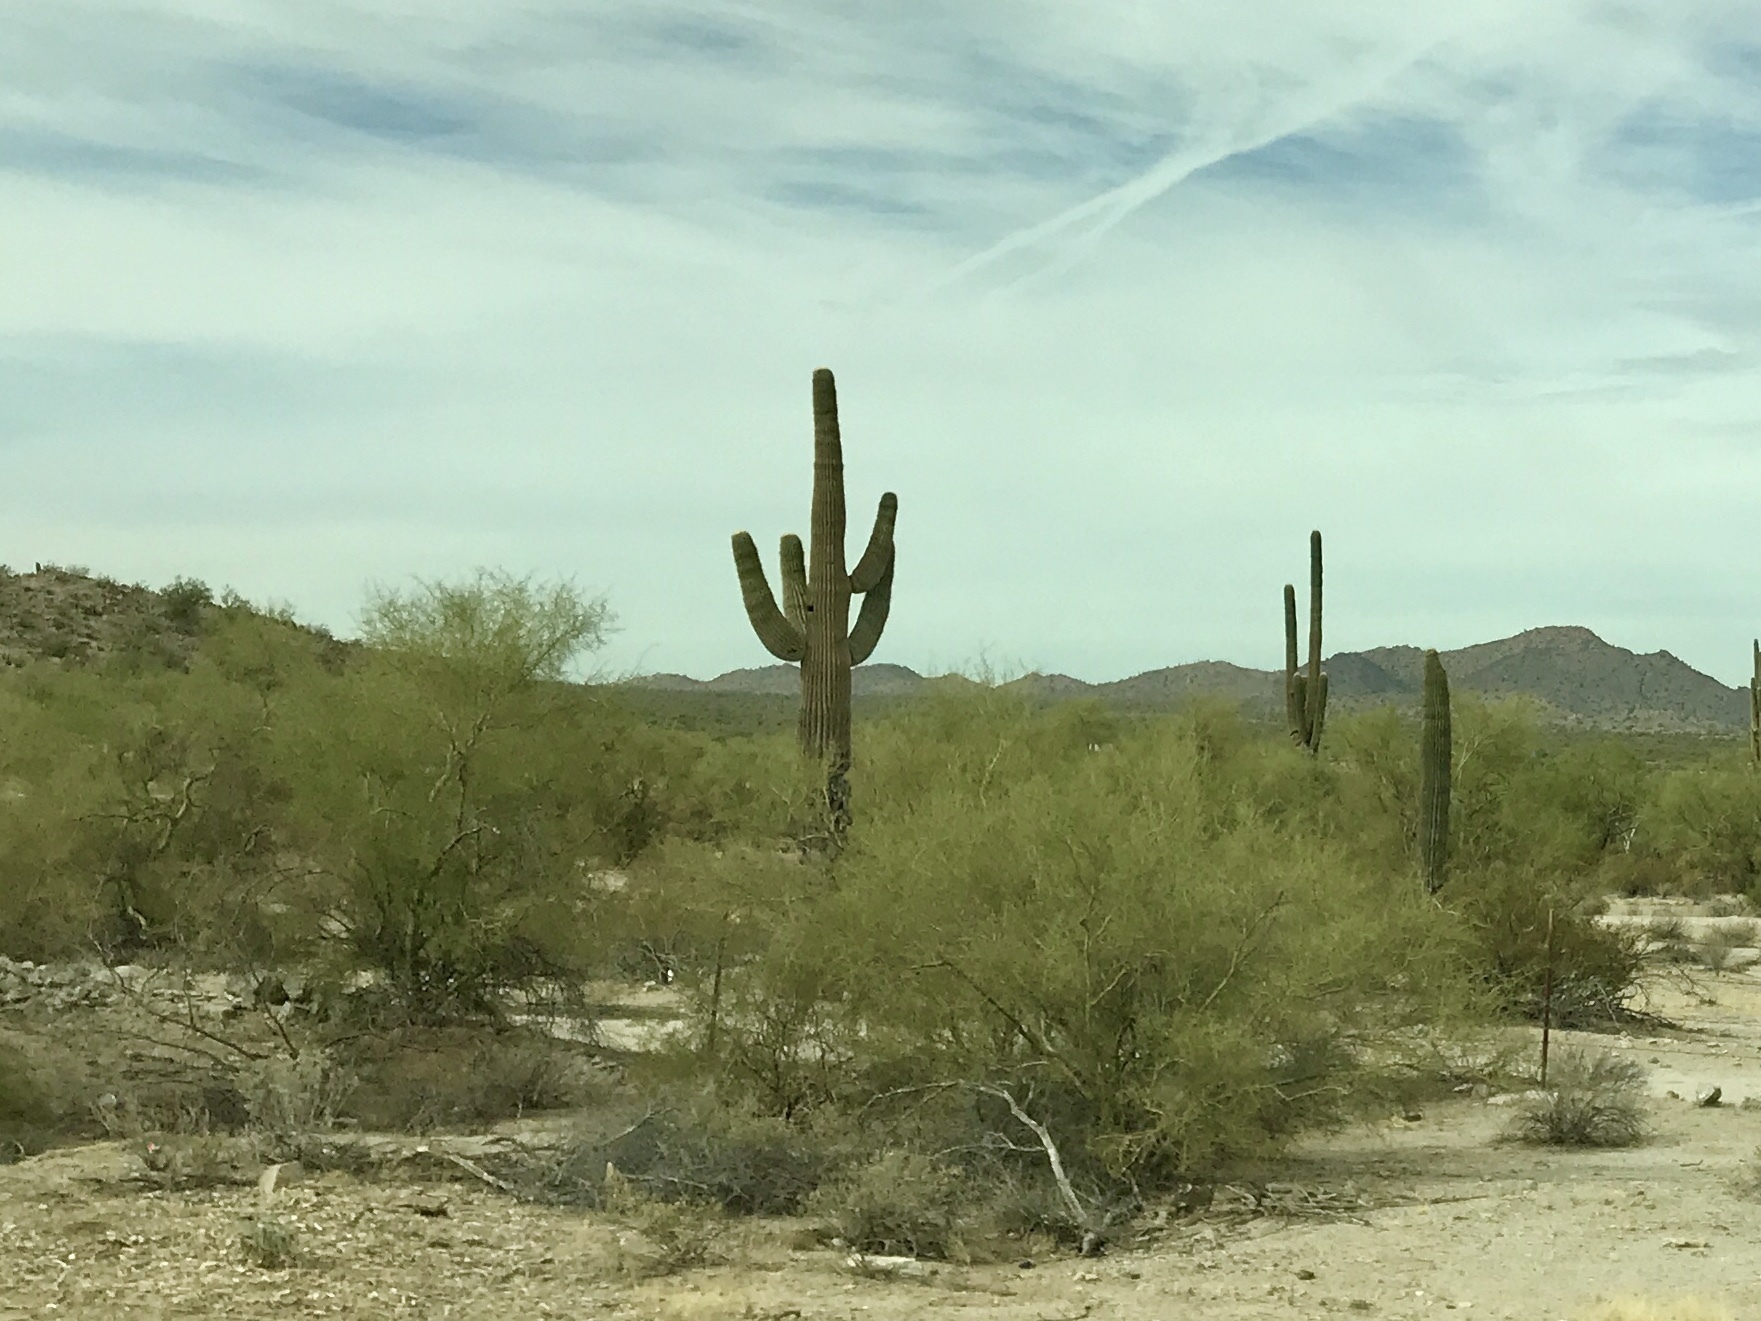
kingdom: Plantae
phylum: Tracheophyta
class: Magnoliopsida
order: Caryophyllales
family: Cactaceae
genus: Carnegiea
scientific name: Carnegiea gigantea
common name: Saguaro
